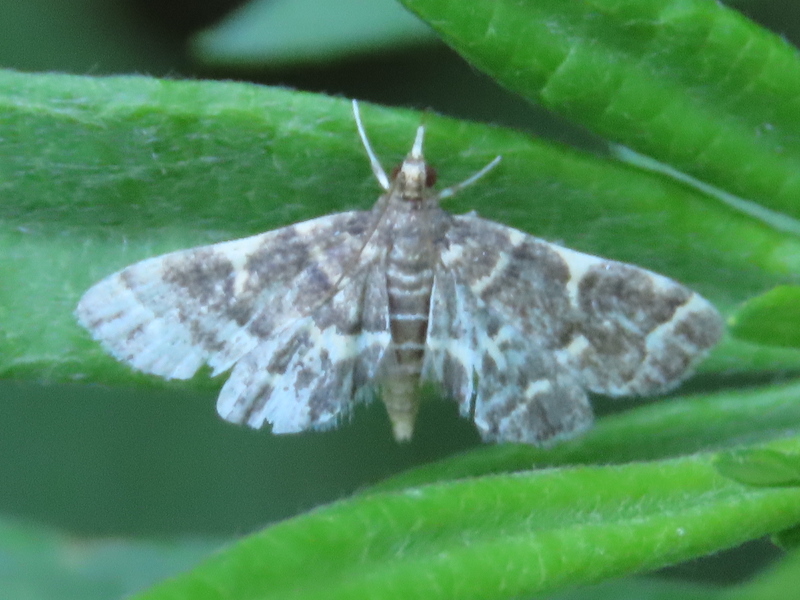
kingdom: Animalia
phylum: Arthropoda
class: Insecta
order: Lepidoptera
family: Crambidae
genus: Anageshna
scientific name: Anageshna primordialis
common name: Yellow-spotted webworm moth
